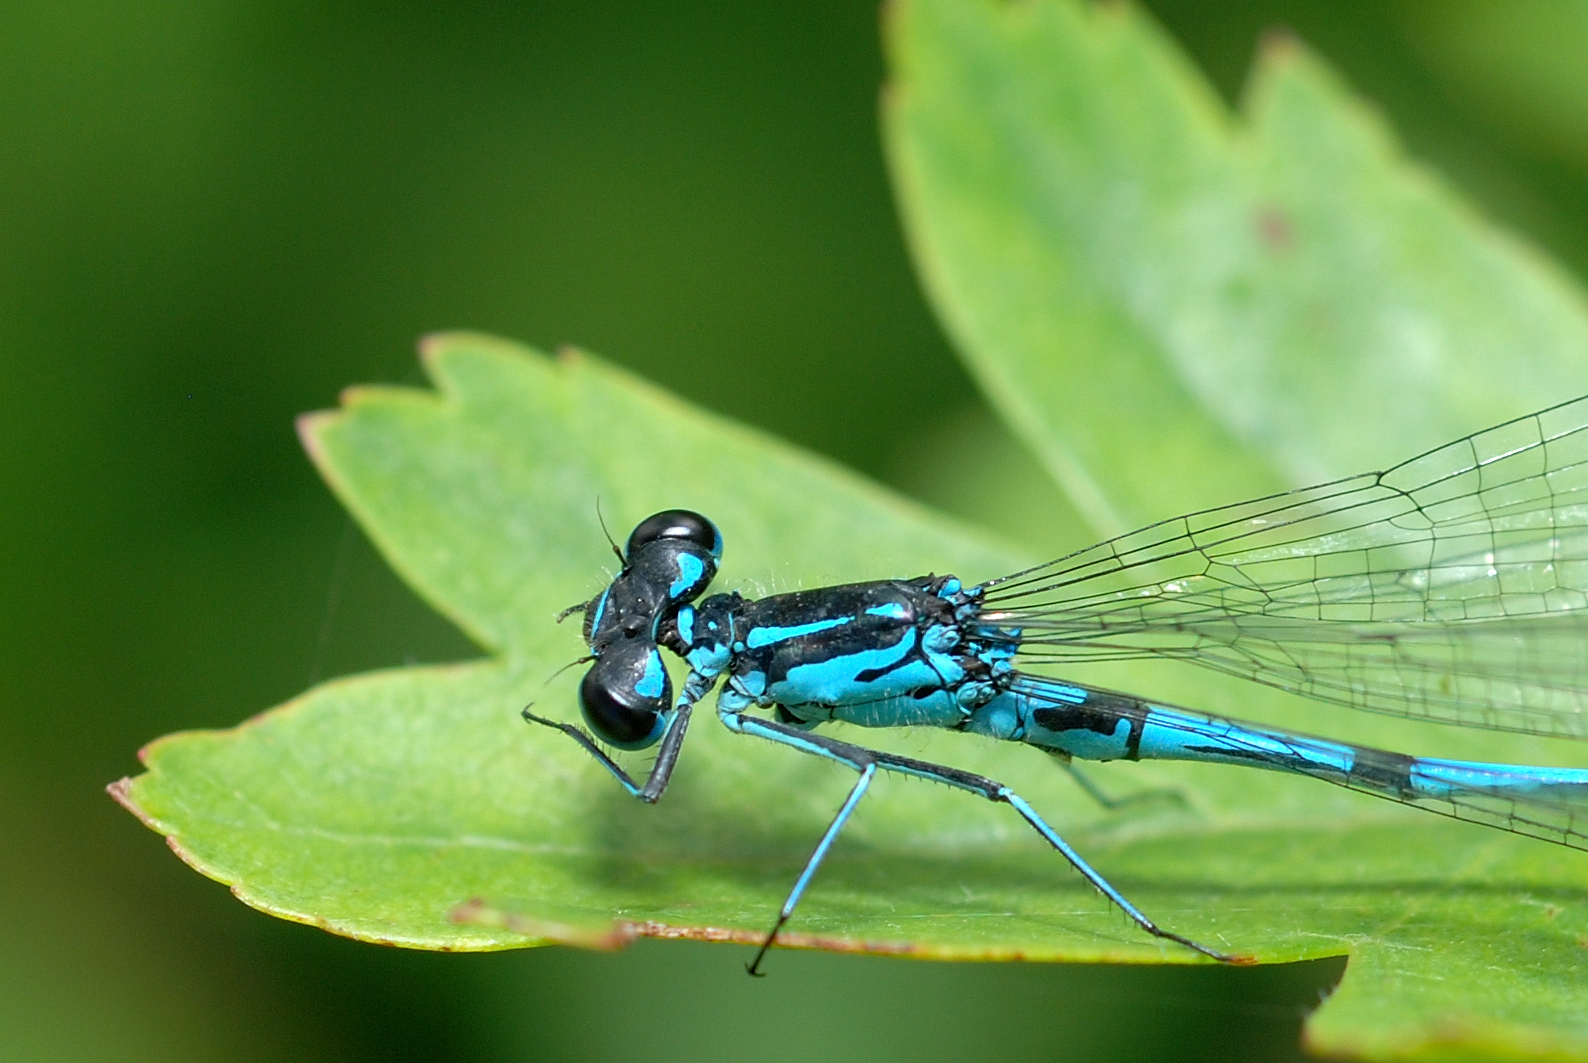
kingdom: Animalia
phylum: Arthropoda
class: Insecta
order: Odonata
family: Coenagrionidae
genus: Coenagrion
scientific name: Coenagrion pulchellum
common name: Variable bluet
